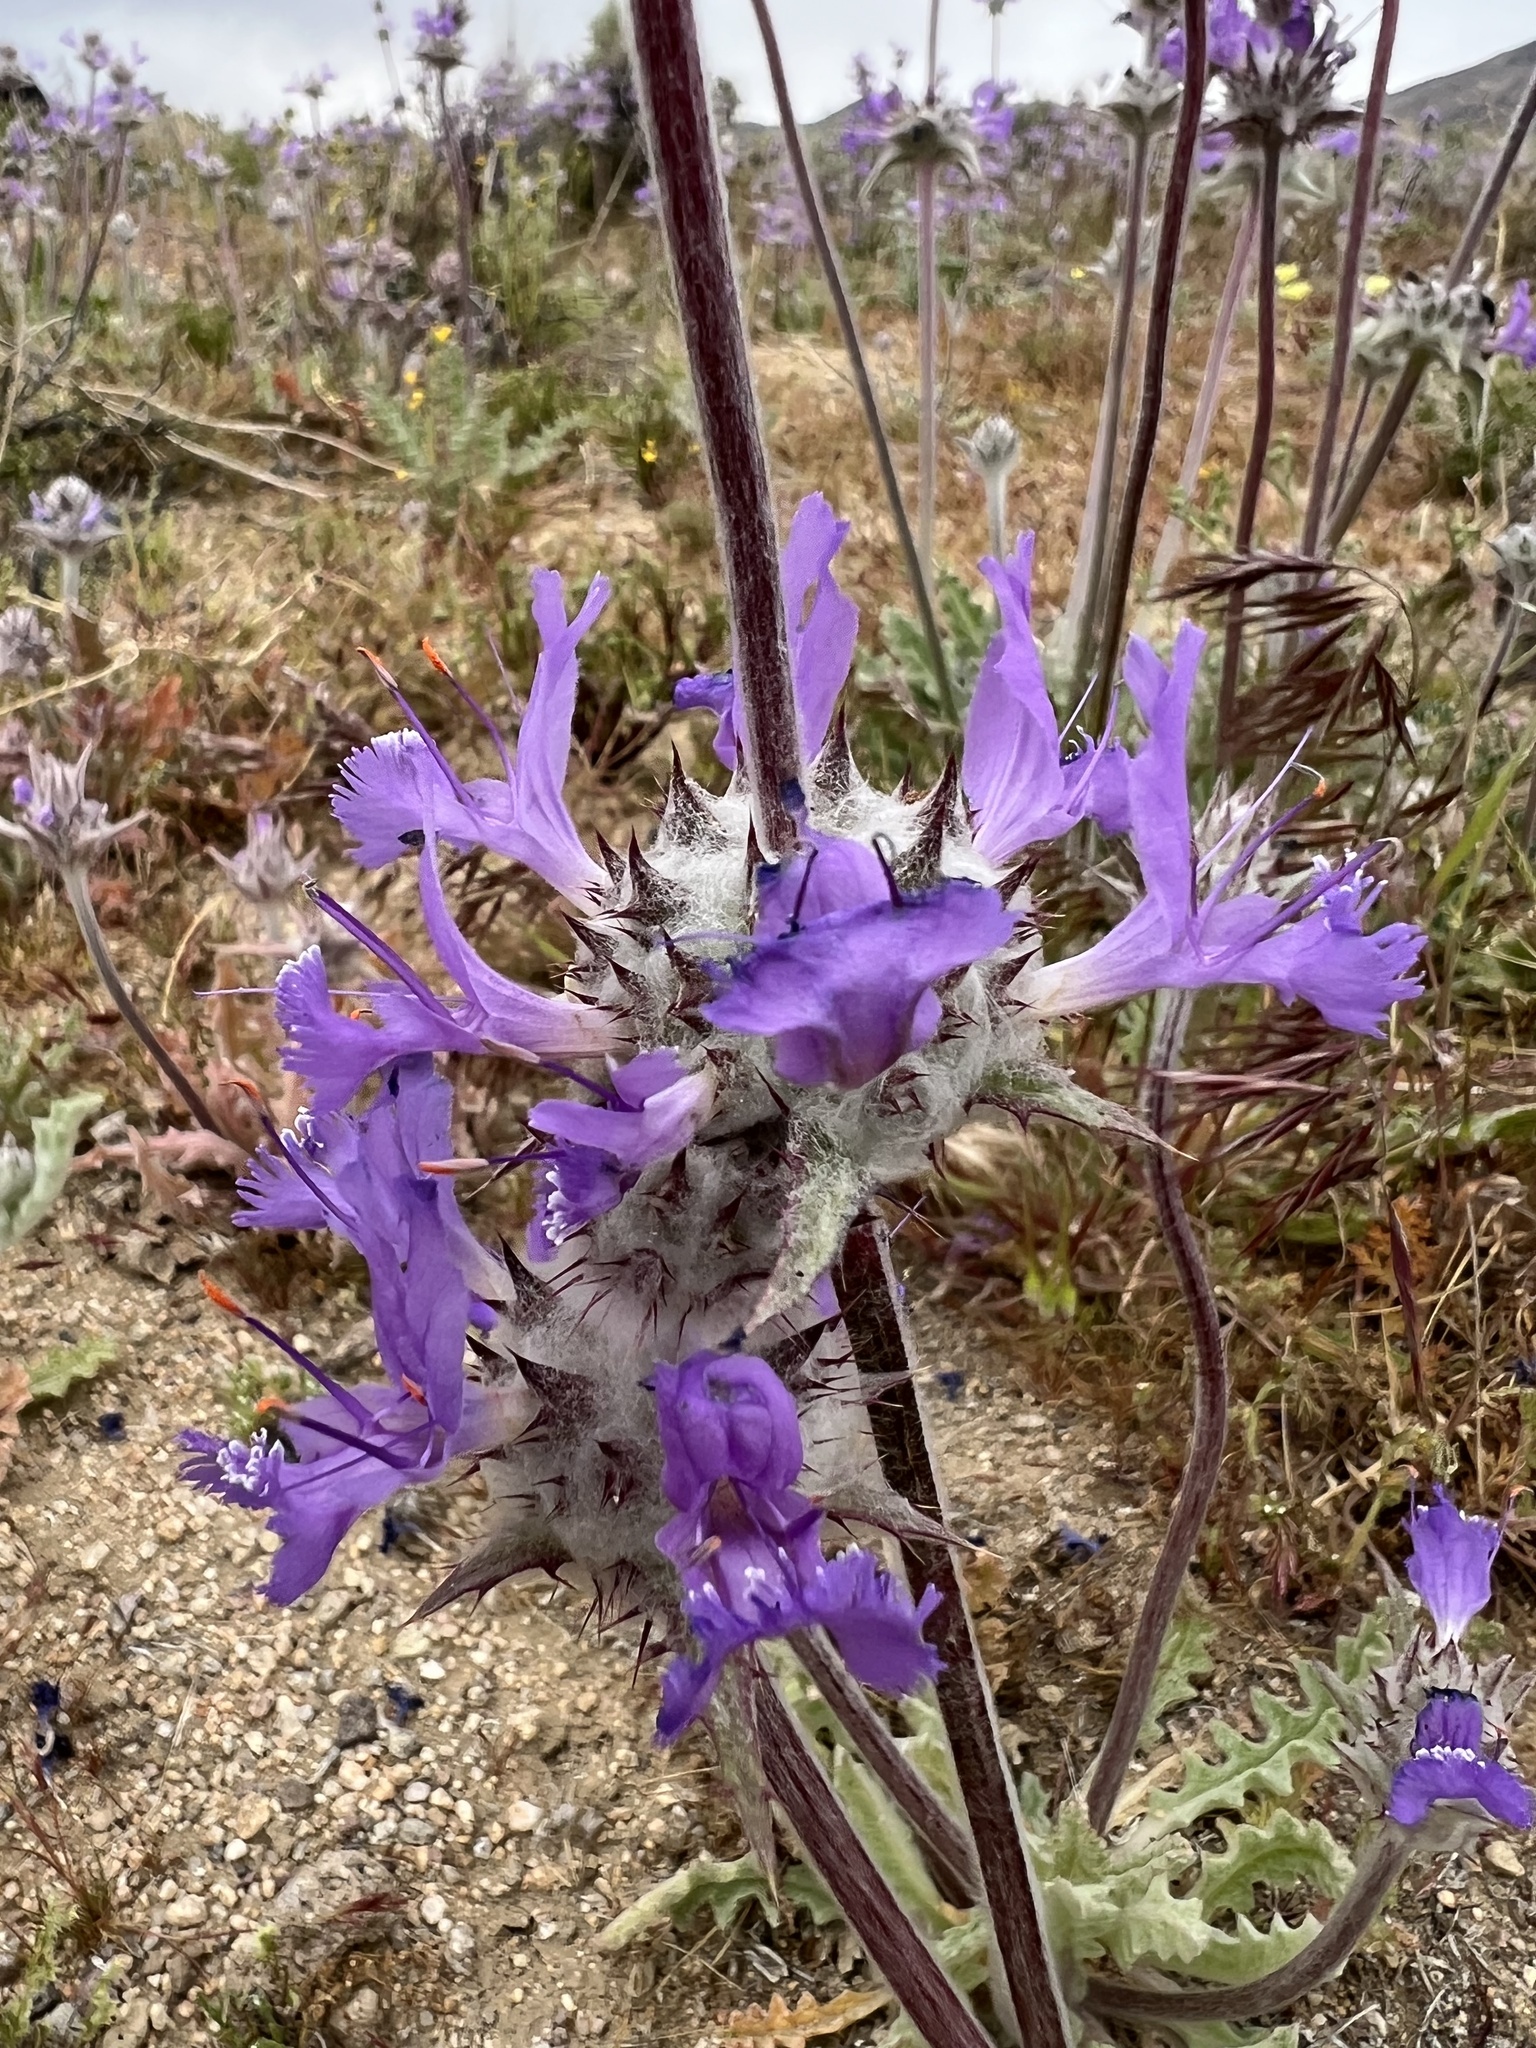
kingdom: Plantae
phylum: Tracheophyta
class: Magnoliopsida
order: Lamiales
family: Lamiaceae
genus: Salvia
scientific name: Salvia carduacea
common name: Thistle sage
